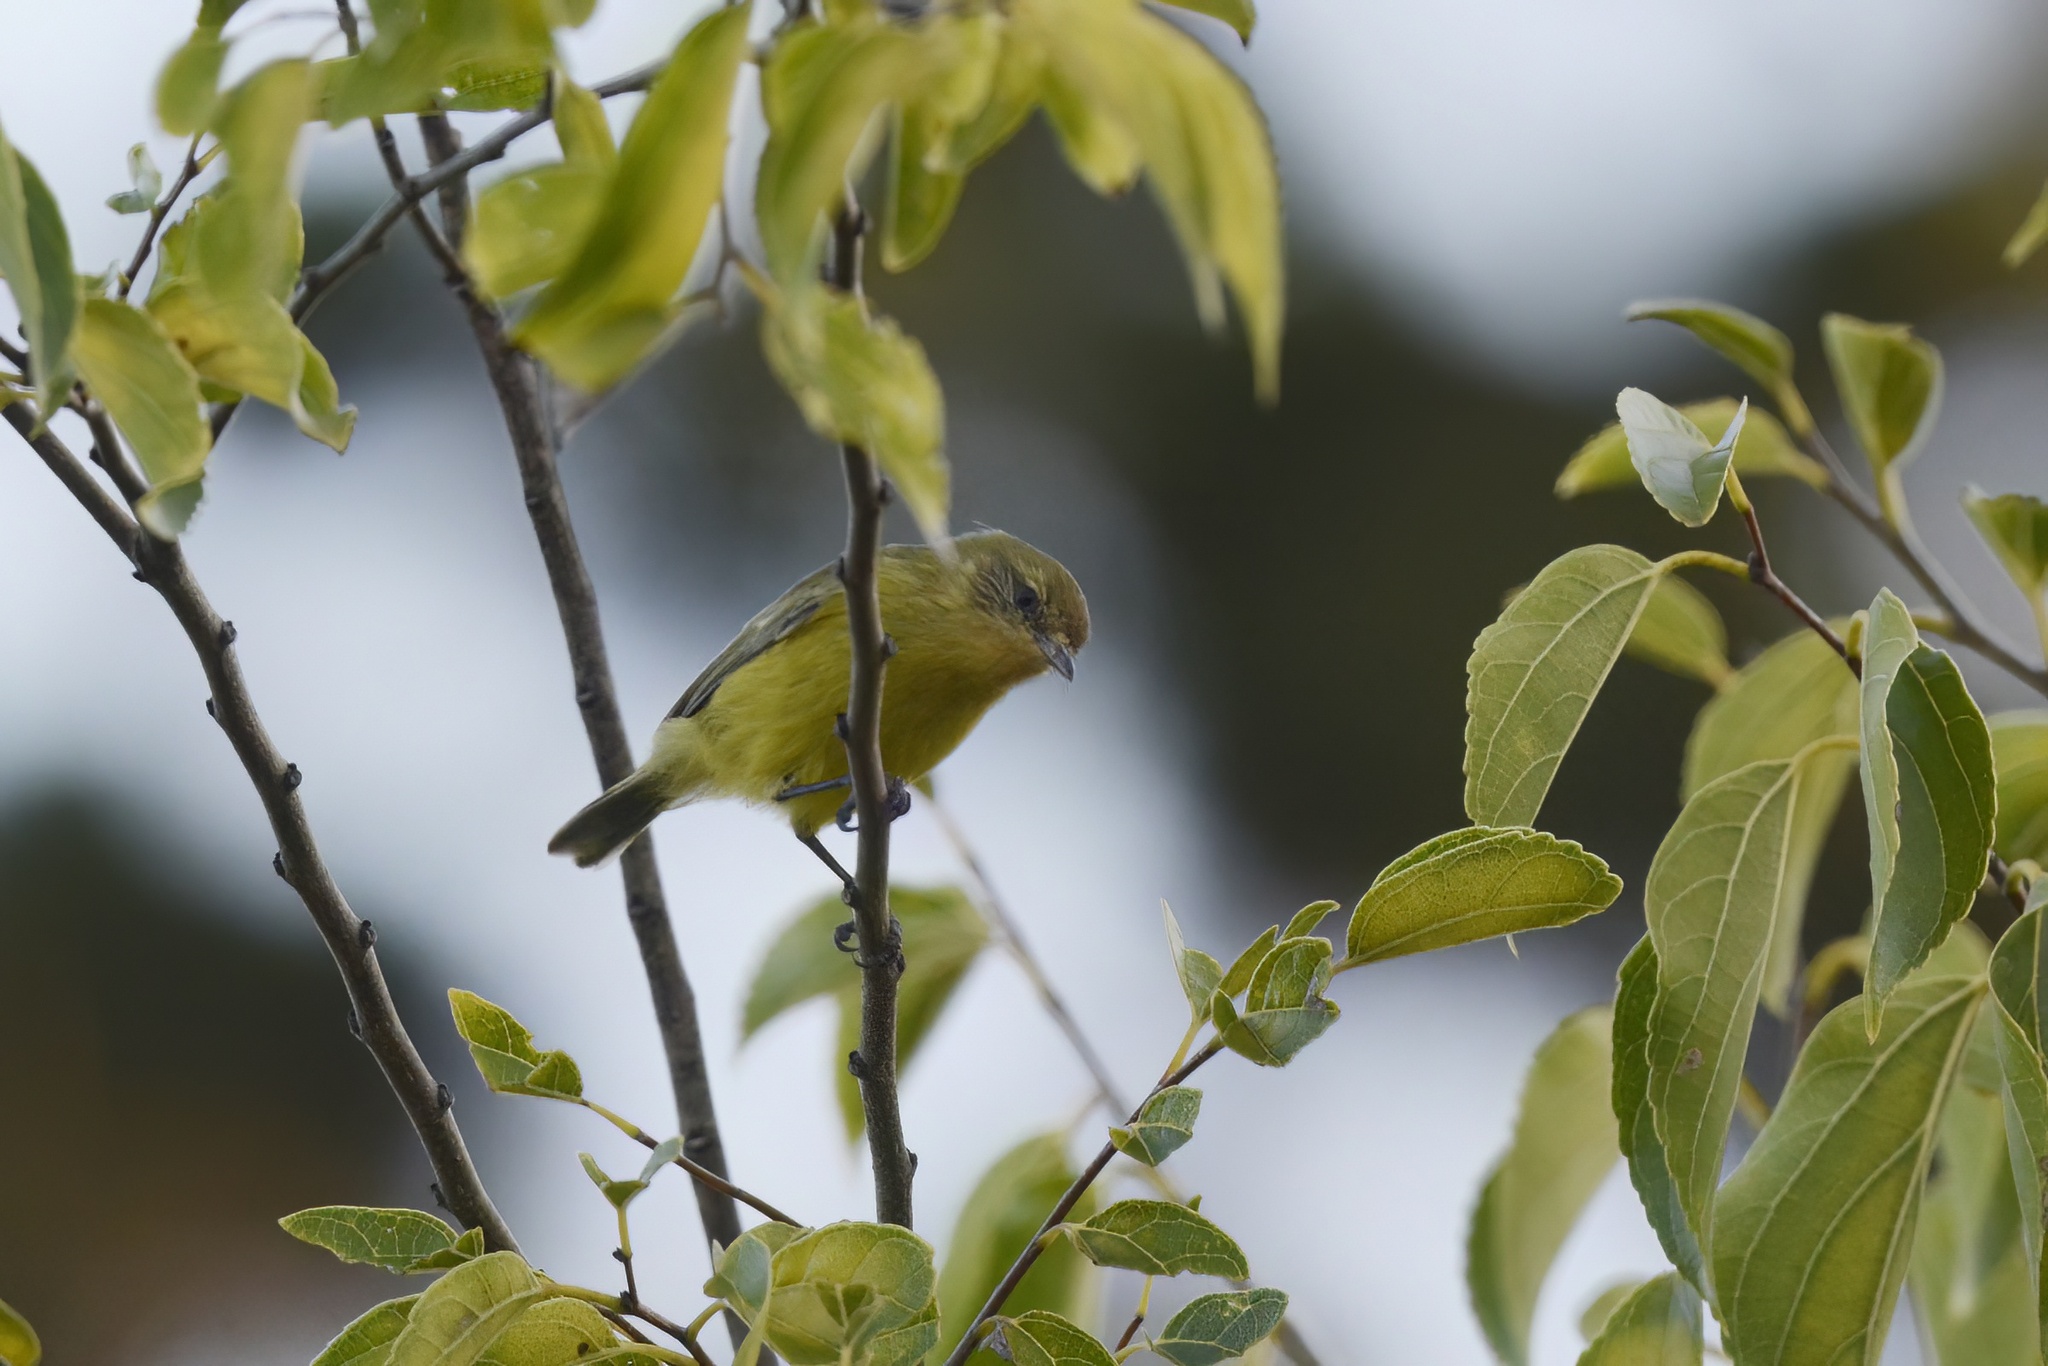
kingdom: Animalia
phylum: Chordata
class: Aves
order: Passeriformes
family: Acanthizidae
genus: Acanthiza
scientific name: Acanthiza nana
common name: Yellow thornbill
